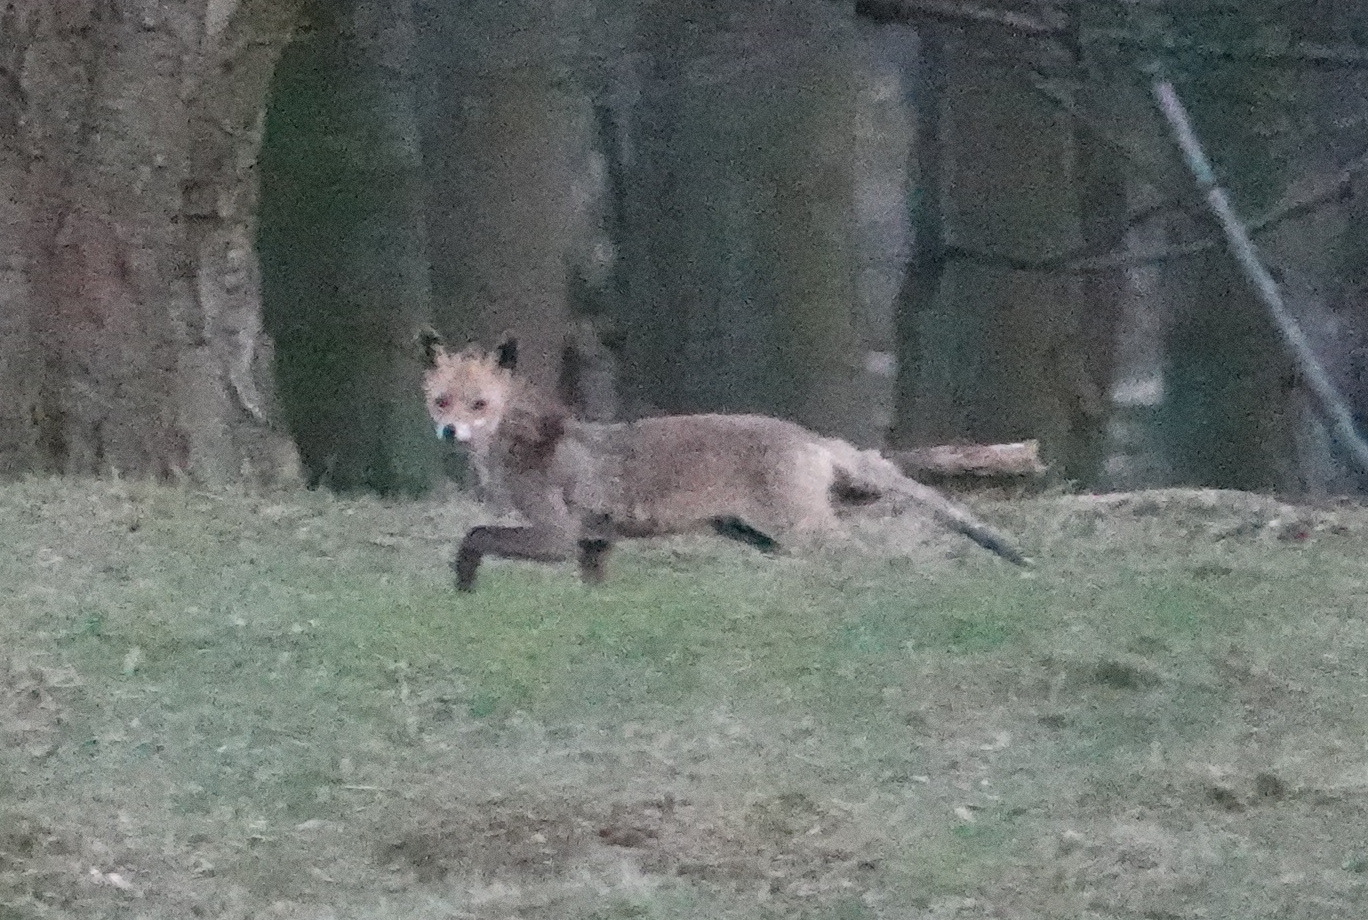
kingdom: Animalia
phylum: Chordata
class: Mammalia
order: Carnivora
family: Canidae
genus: Vulpes
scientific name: Vulpes vulpes
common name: Red fox
